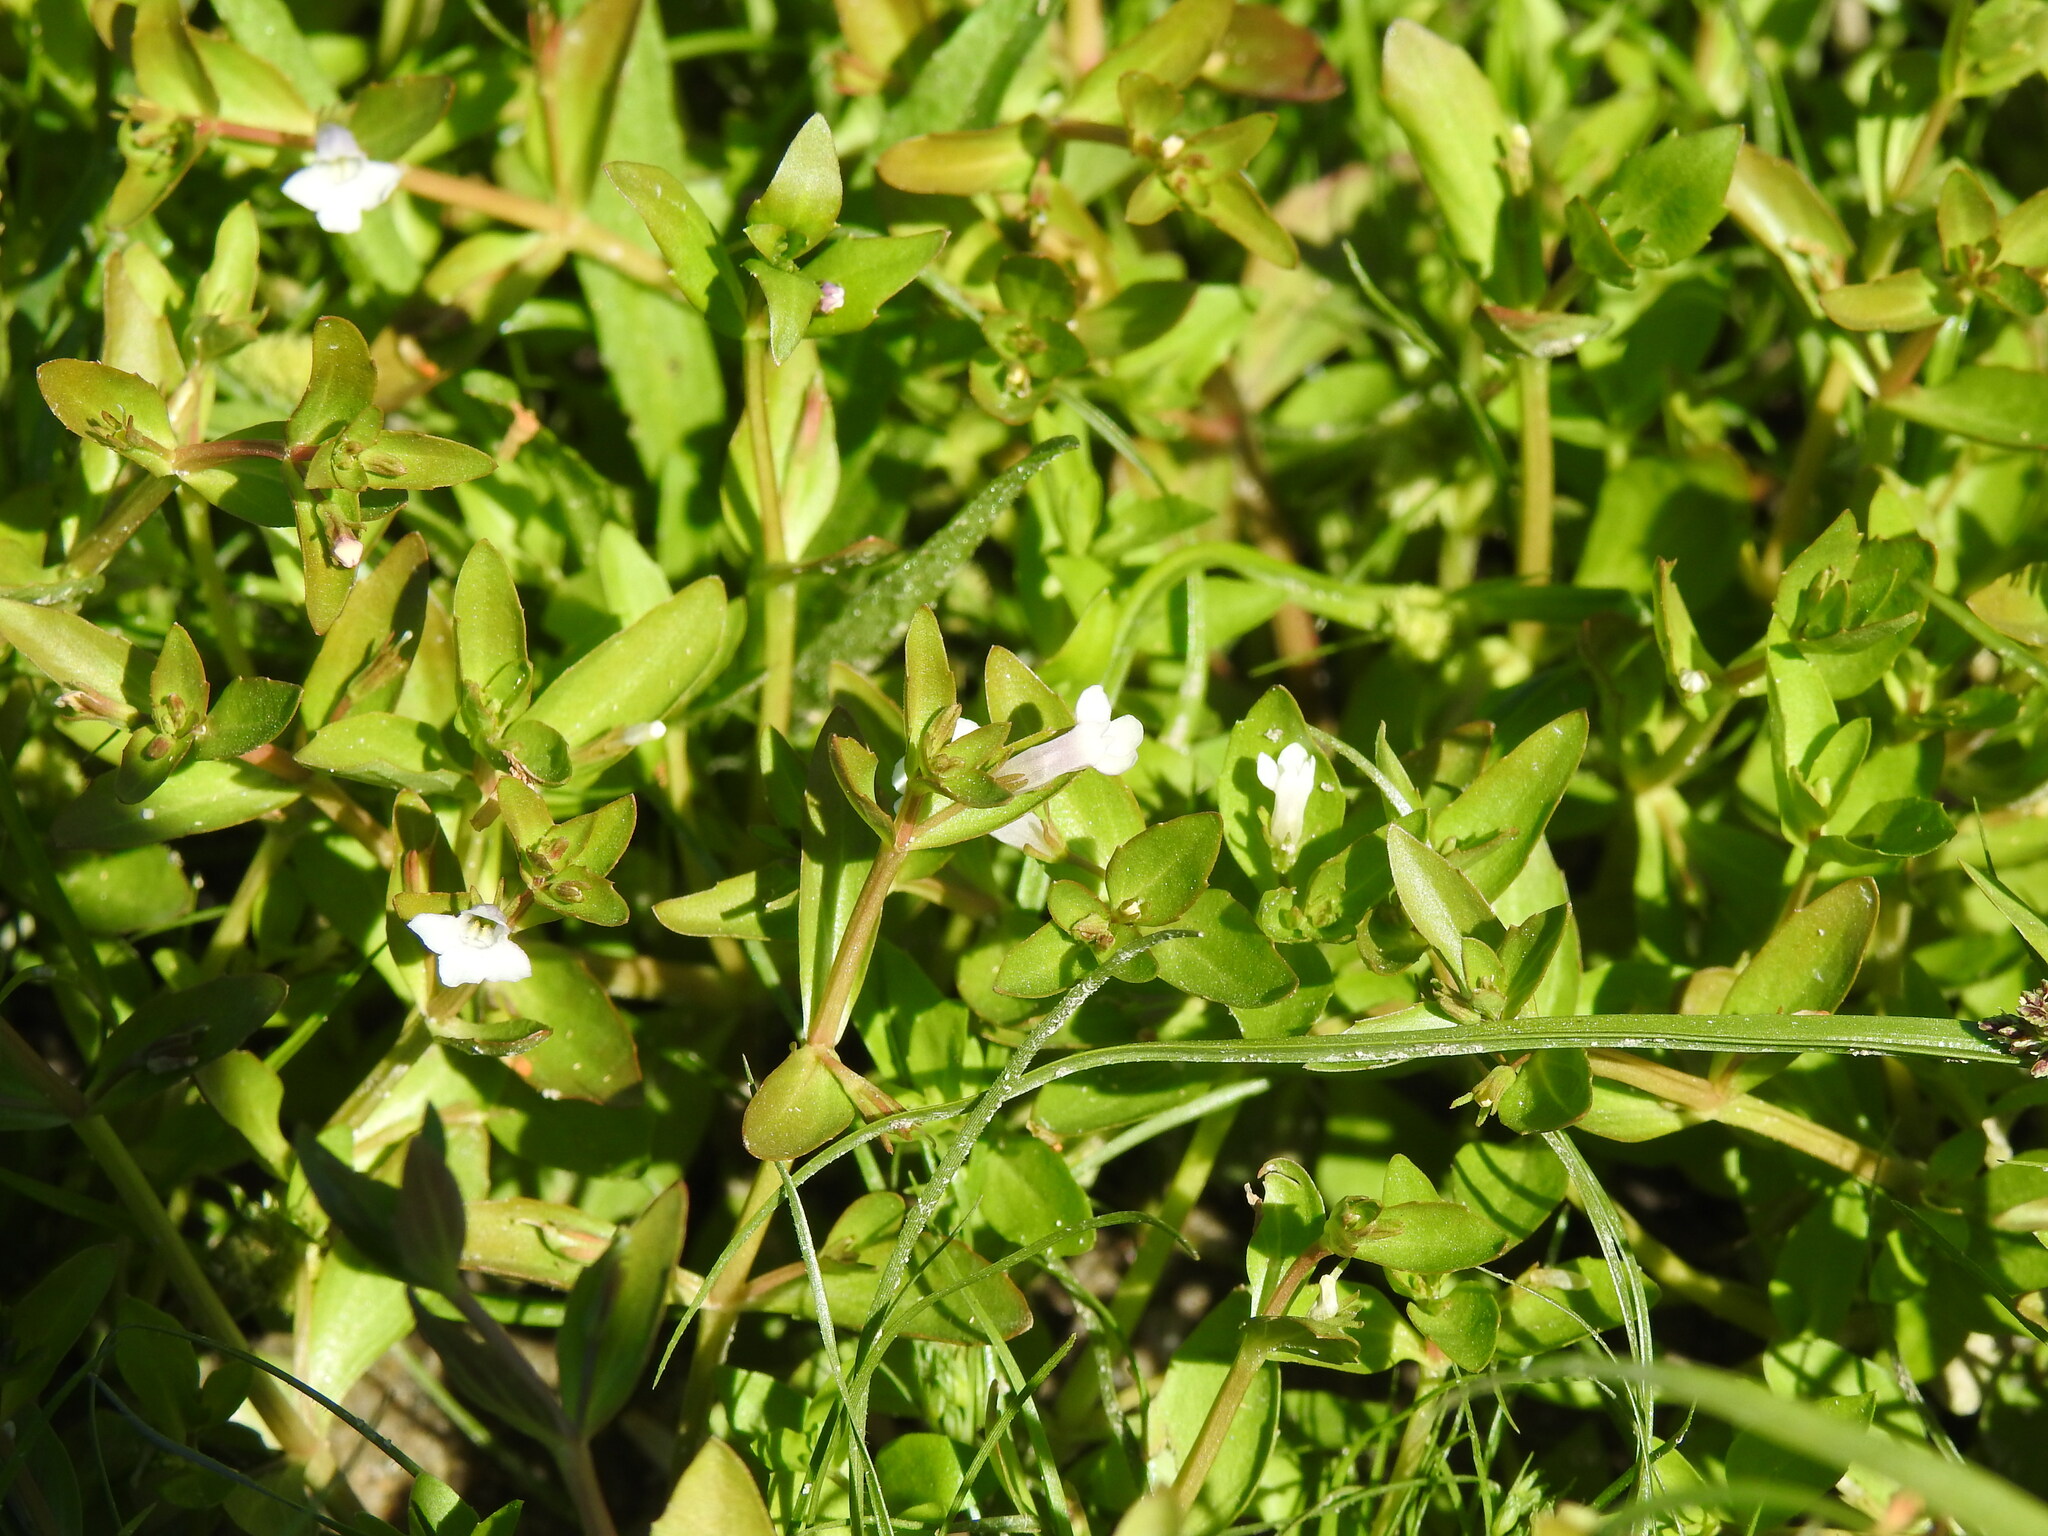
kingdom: Plantae
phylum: Tracheophyta
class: Magnoliopsida
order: Lamiales
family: Linderniaceae
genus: Lindernia
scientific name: Lindernia dubia
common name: Annual false pimpernel
